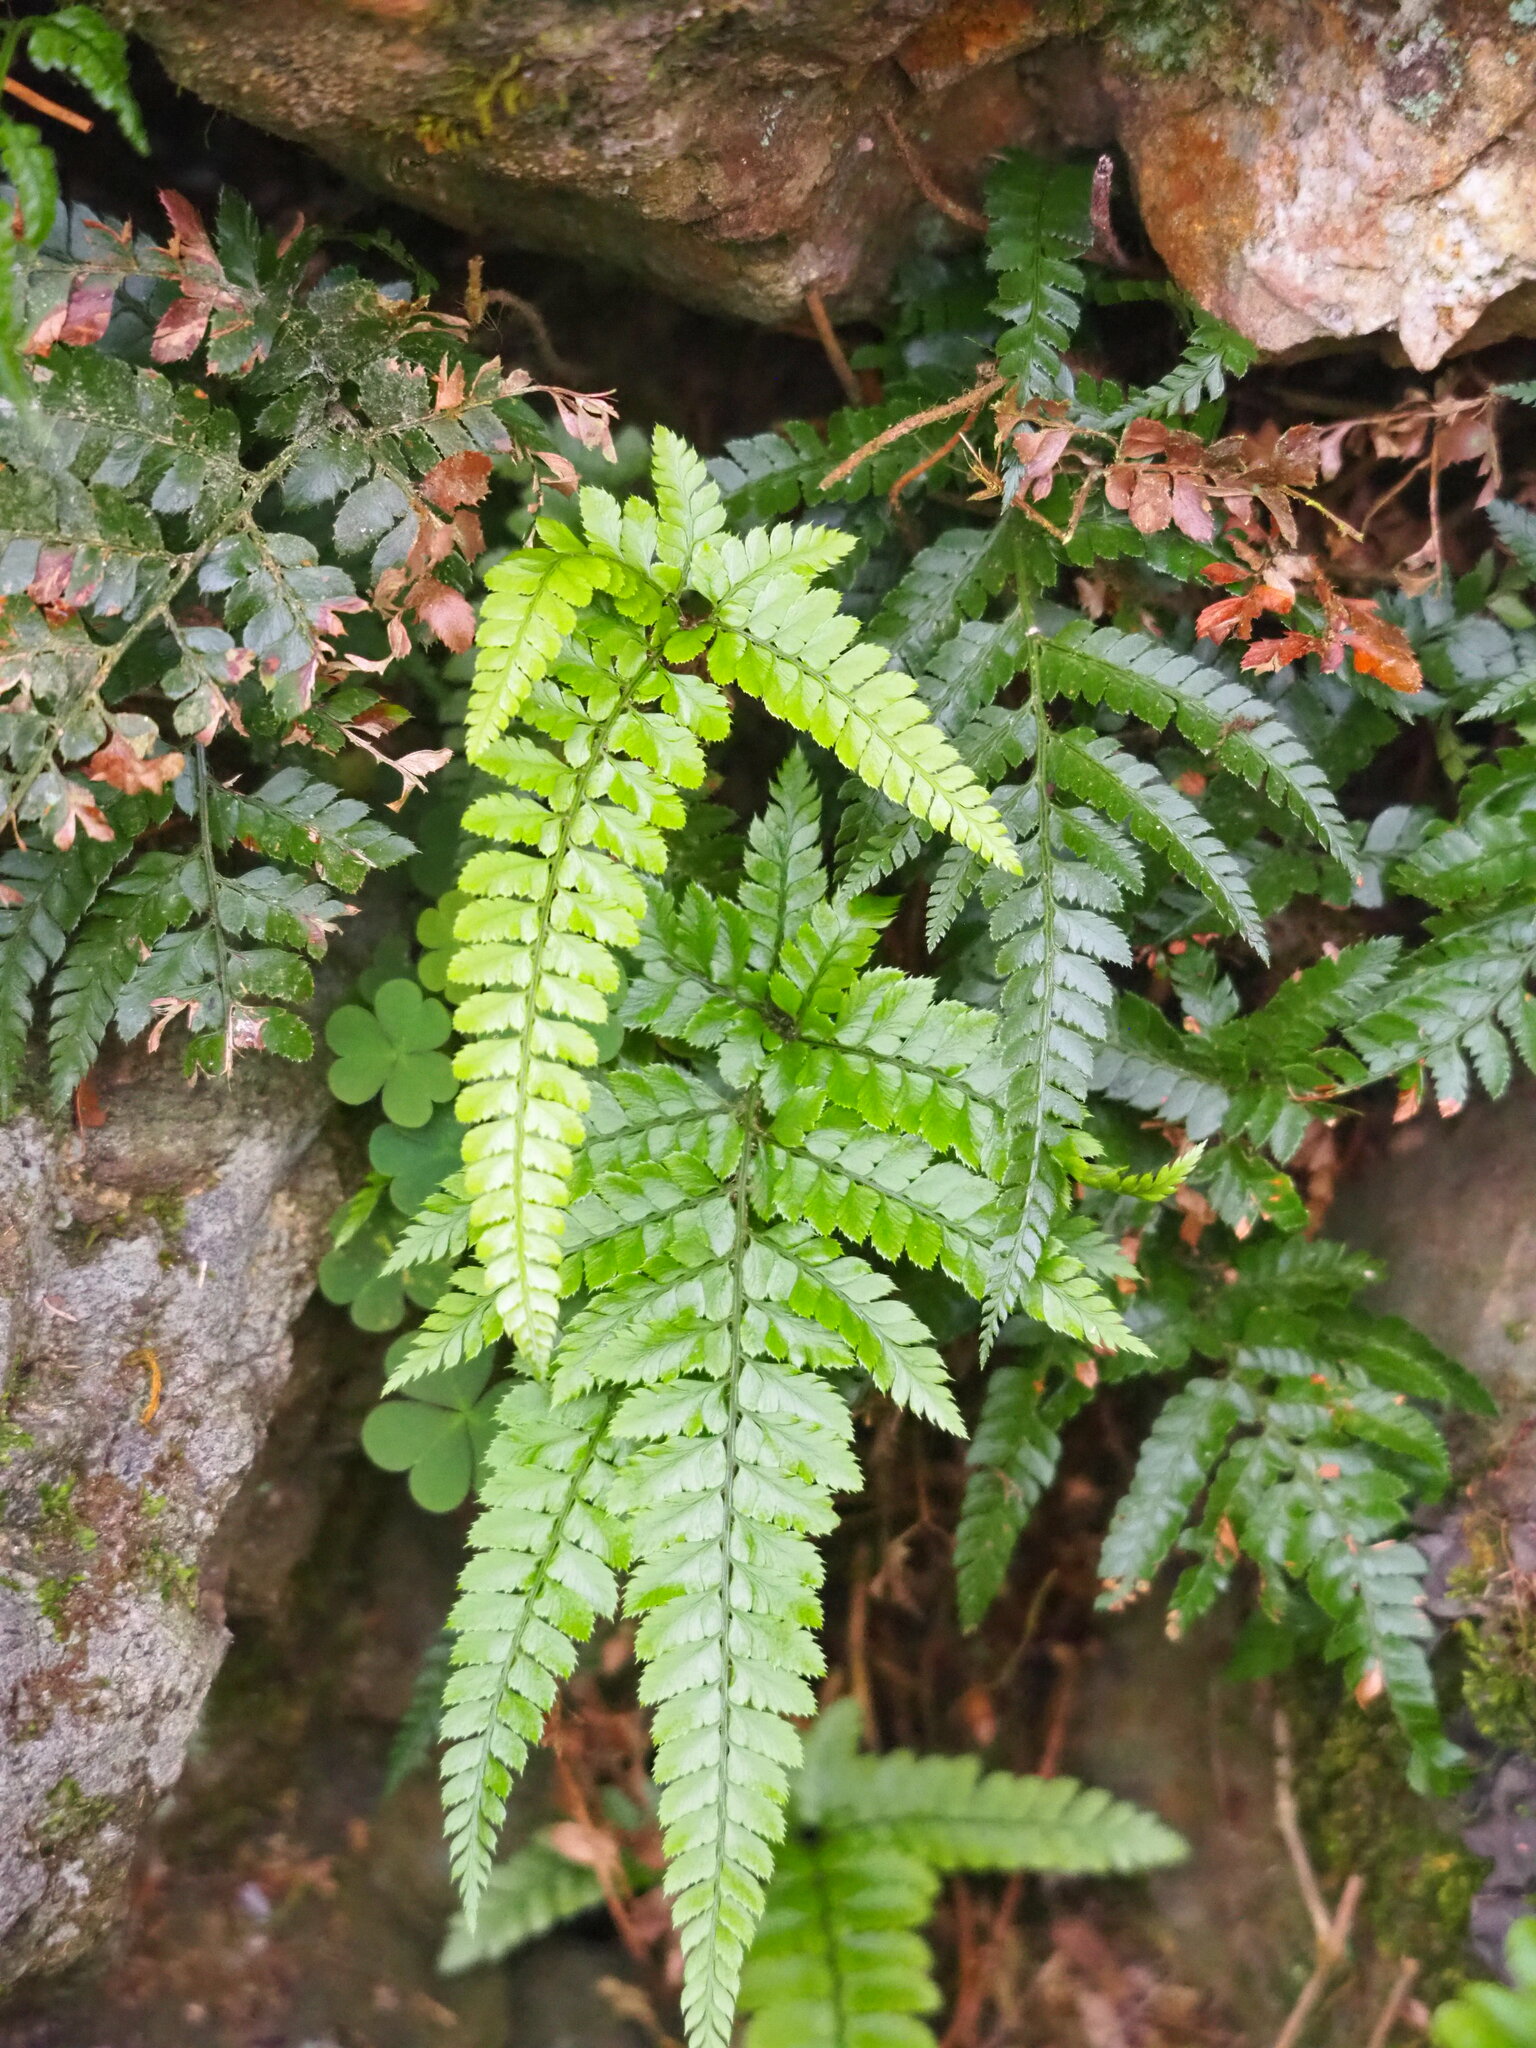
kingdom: Plantae
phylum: Tracheophyta
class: Polypodiopsida
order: Polypodiales
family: Dryopteridaceae
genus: Arachniodes
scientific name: Arachniodes aristata
